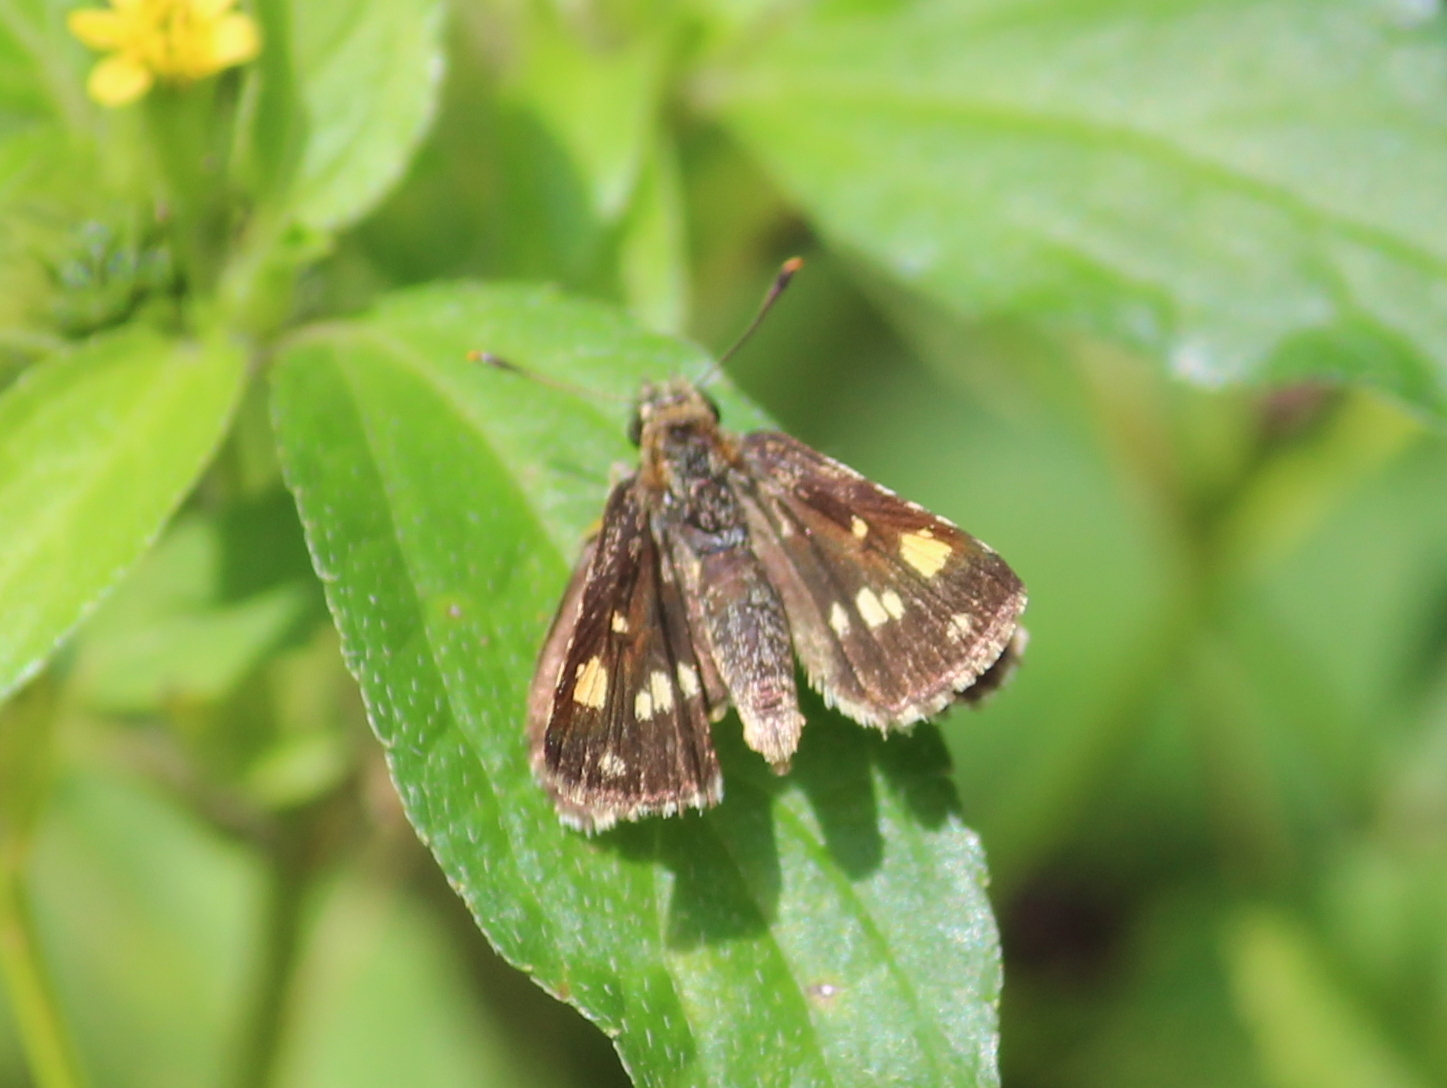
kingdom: Animalia
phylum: Arthropoda
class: Insecta
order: Lepidoptera
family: Hesperiidae
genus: Ampittia
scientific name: Ampittia dioscorides
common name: Common bush hopper
